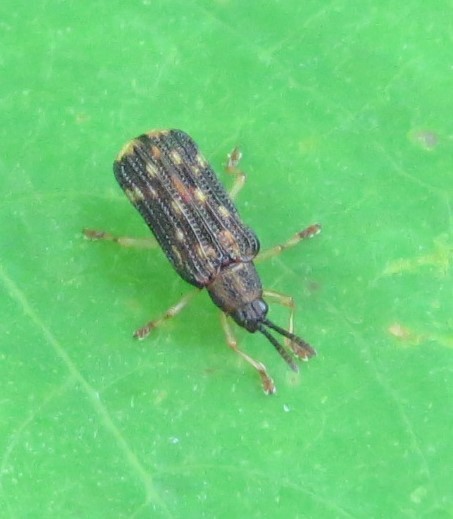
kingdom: Animalia
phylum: Arthropoda
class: Insecta
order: Coleoptera
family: Chrysomelidae
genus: Sumitrosis
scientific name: Sumitrosis inaequalis
